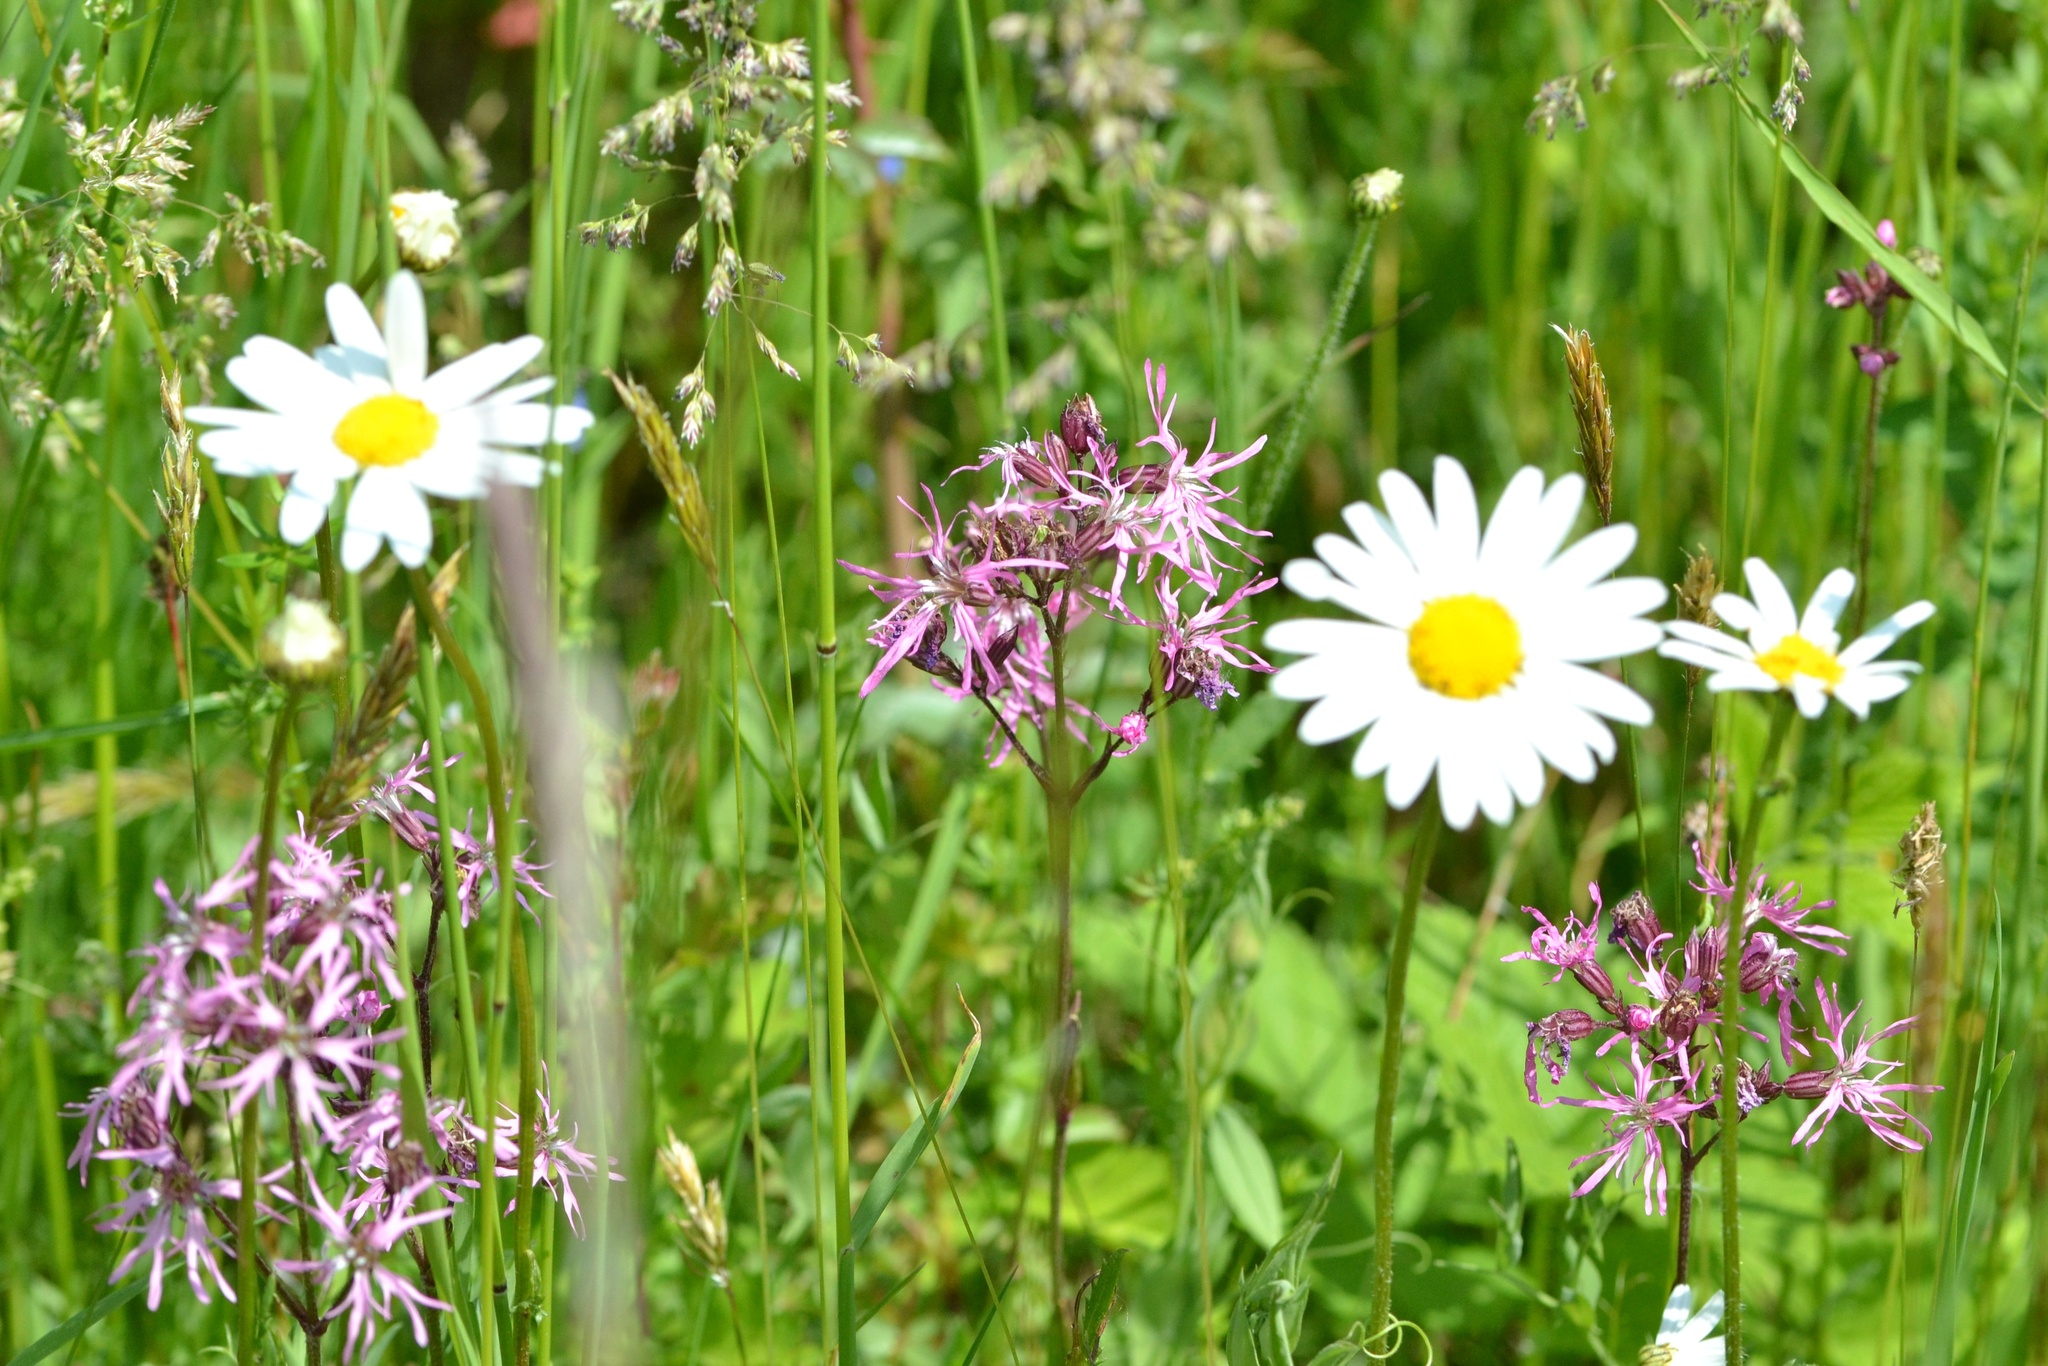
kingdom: Plantae
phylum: Tracheophyta
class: Magnoliopsida
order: Caryophyllales
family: Caryophyllaceae
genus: Silene
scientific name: Silene flos-cuculi
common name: Ragged-robin
